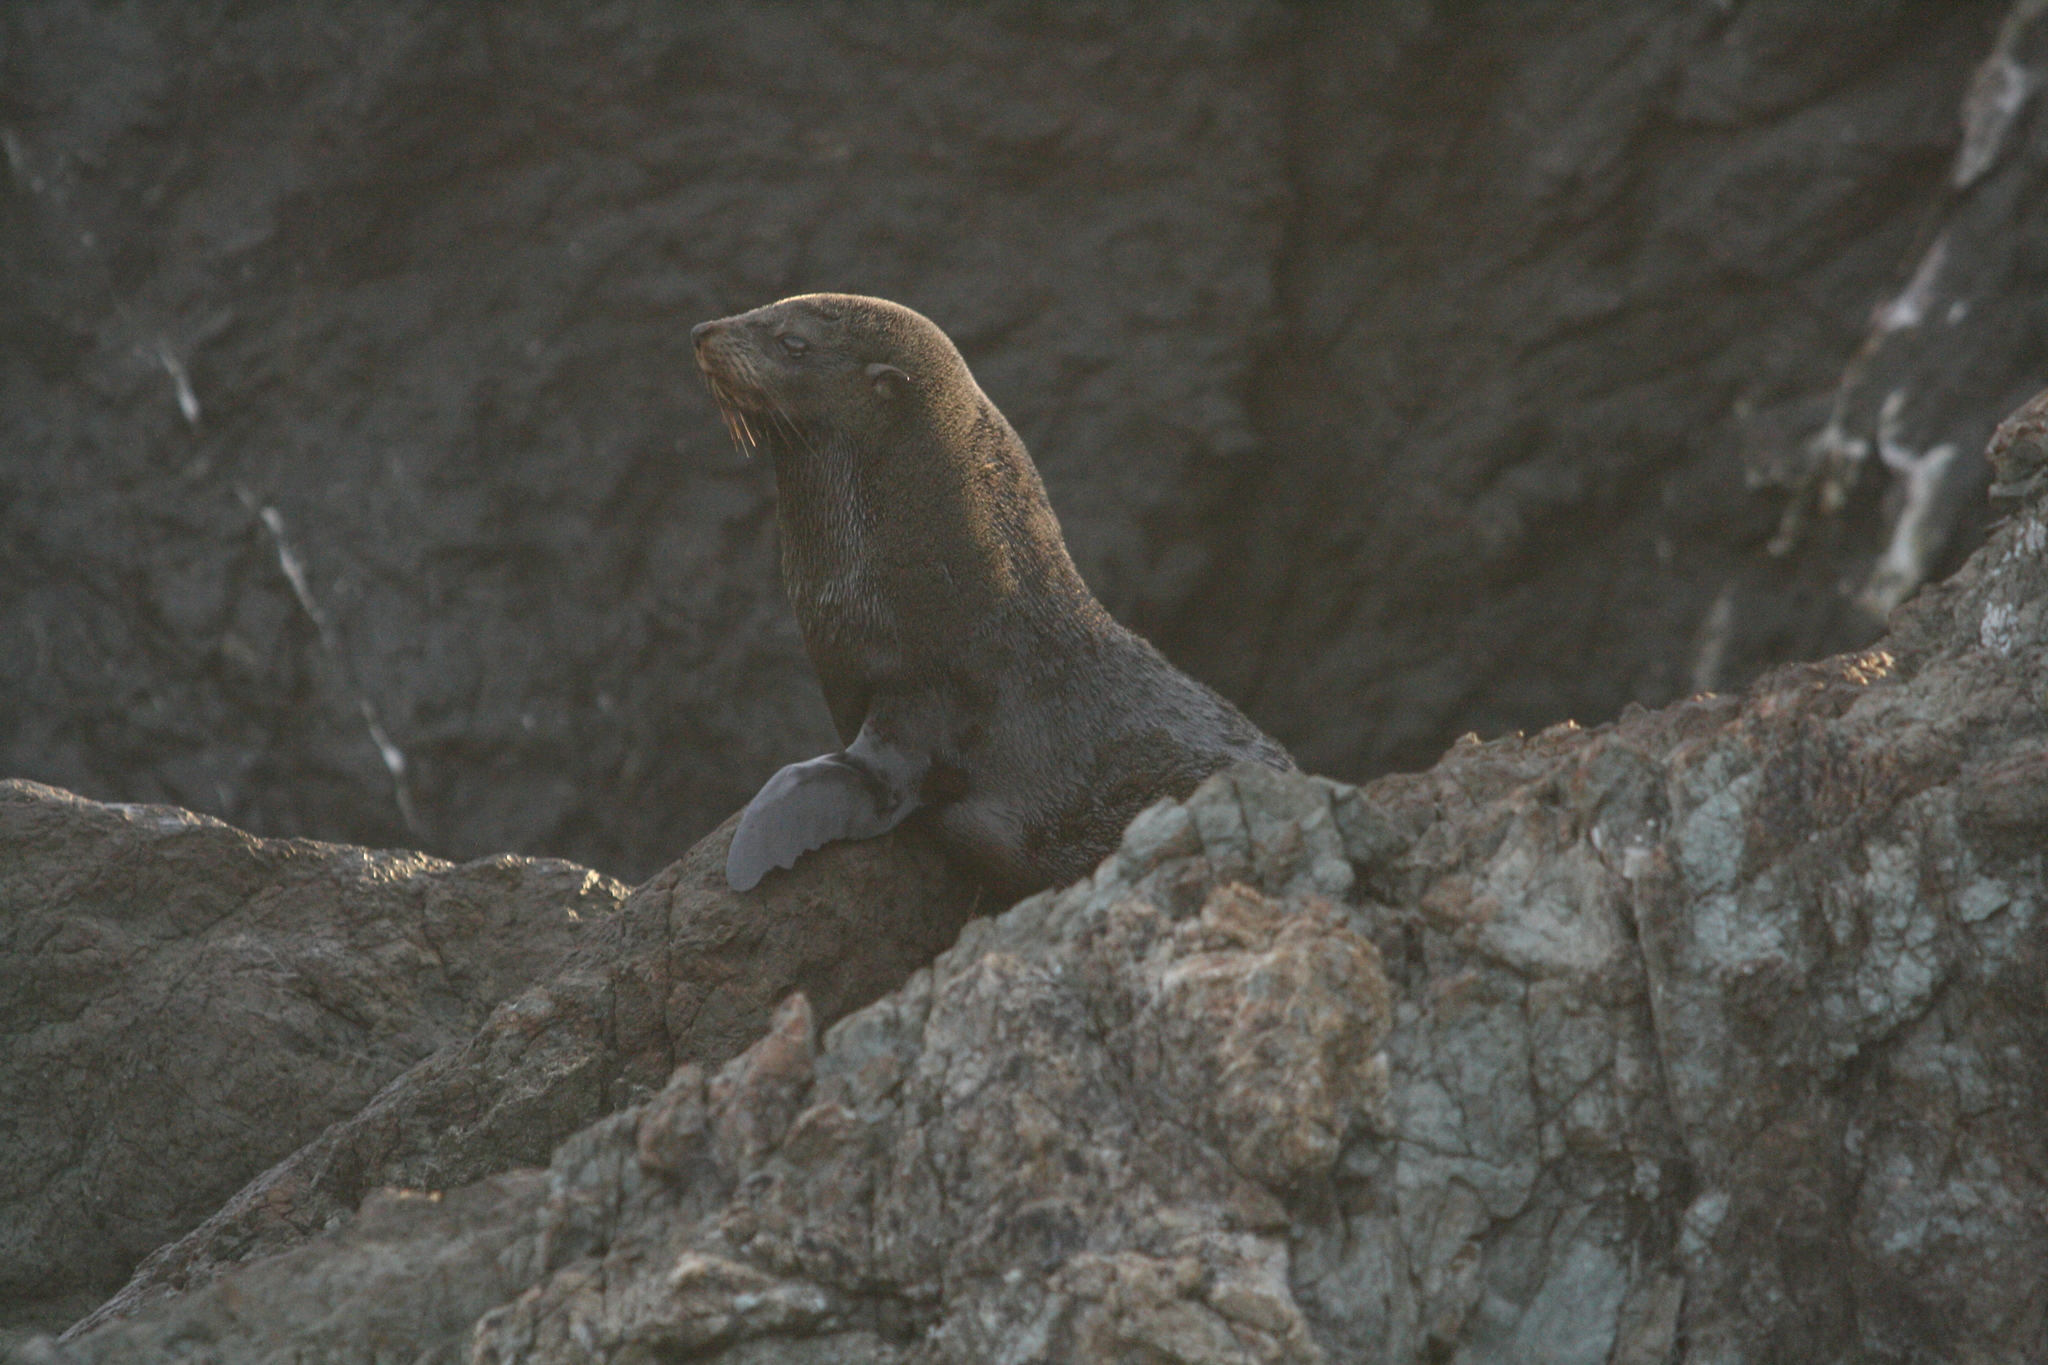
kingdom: Animalia
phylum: Chordata
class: Mammalia
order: Carnivora
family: Otariidae
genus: Arctocephalus
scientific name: Arctocephalus forsteri
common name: New zealand fur seal
